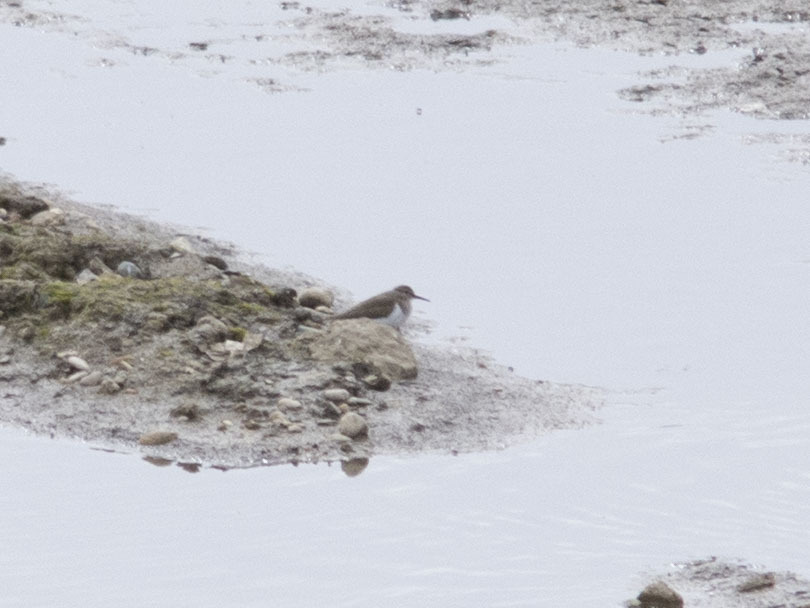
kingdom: Animalia
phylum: Chordata
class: Aves
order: Charadriiformes
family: Scolopacidae
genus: Actitis
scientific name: Actitis hypoleucos
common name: Common sandpiper
